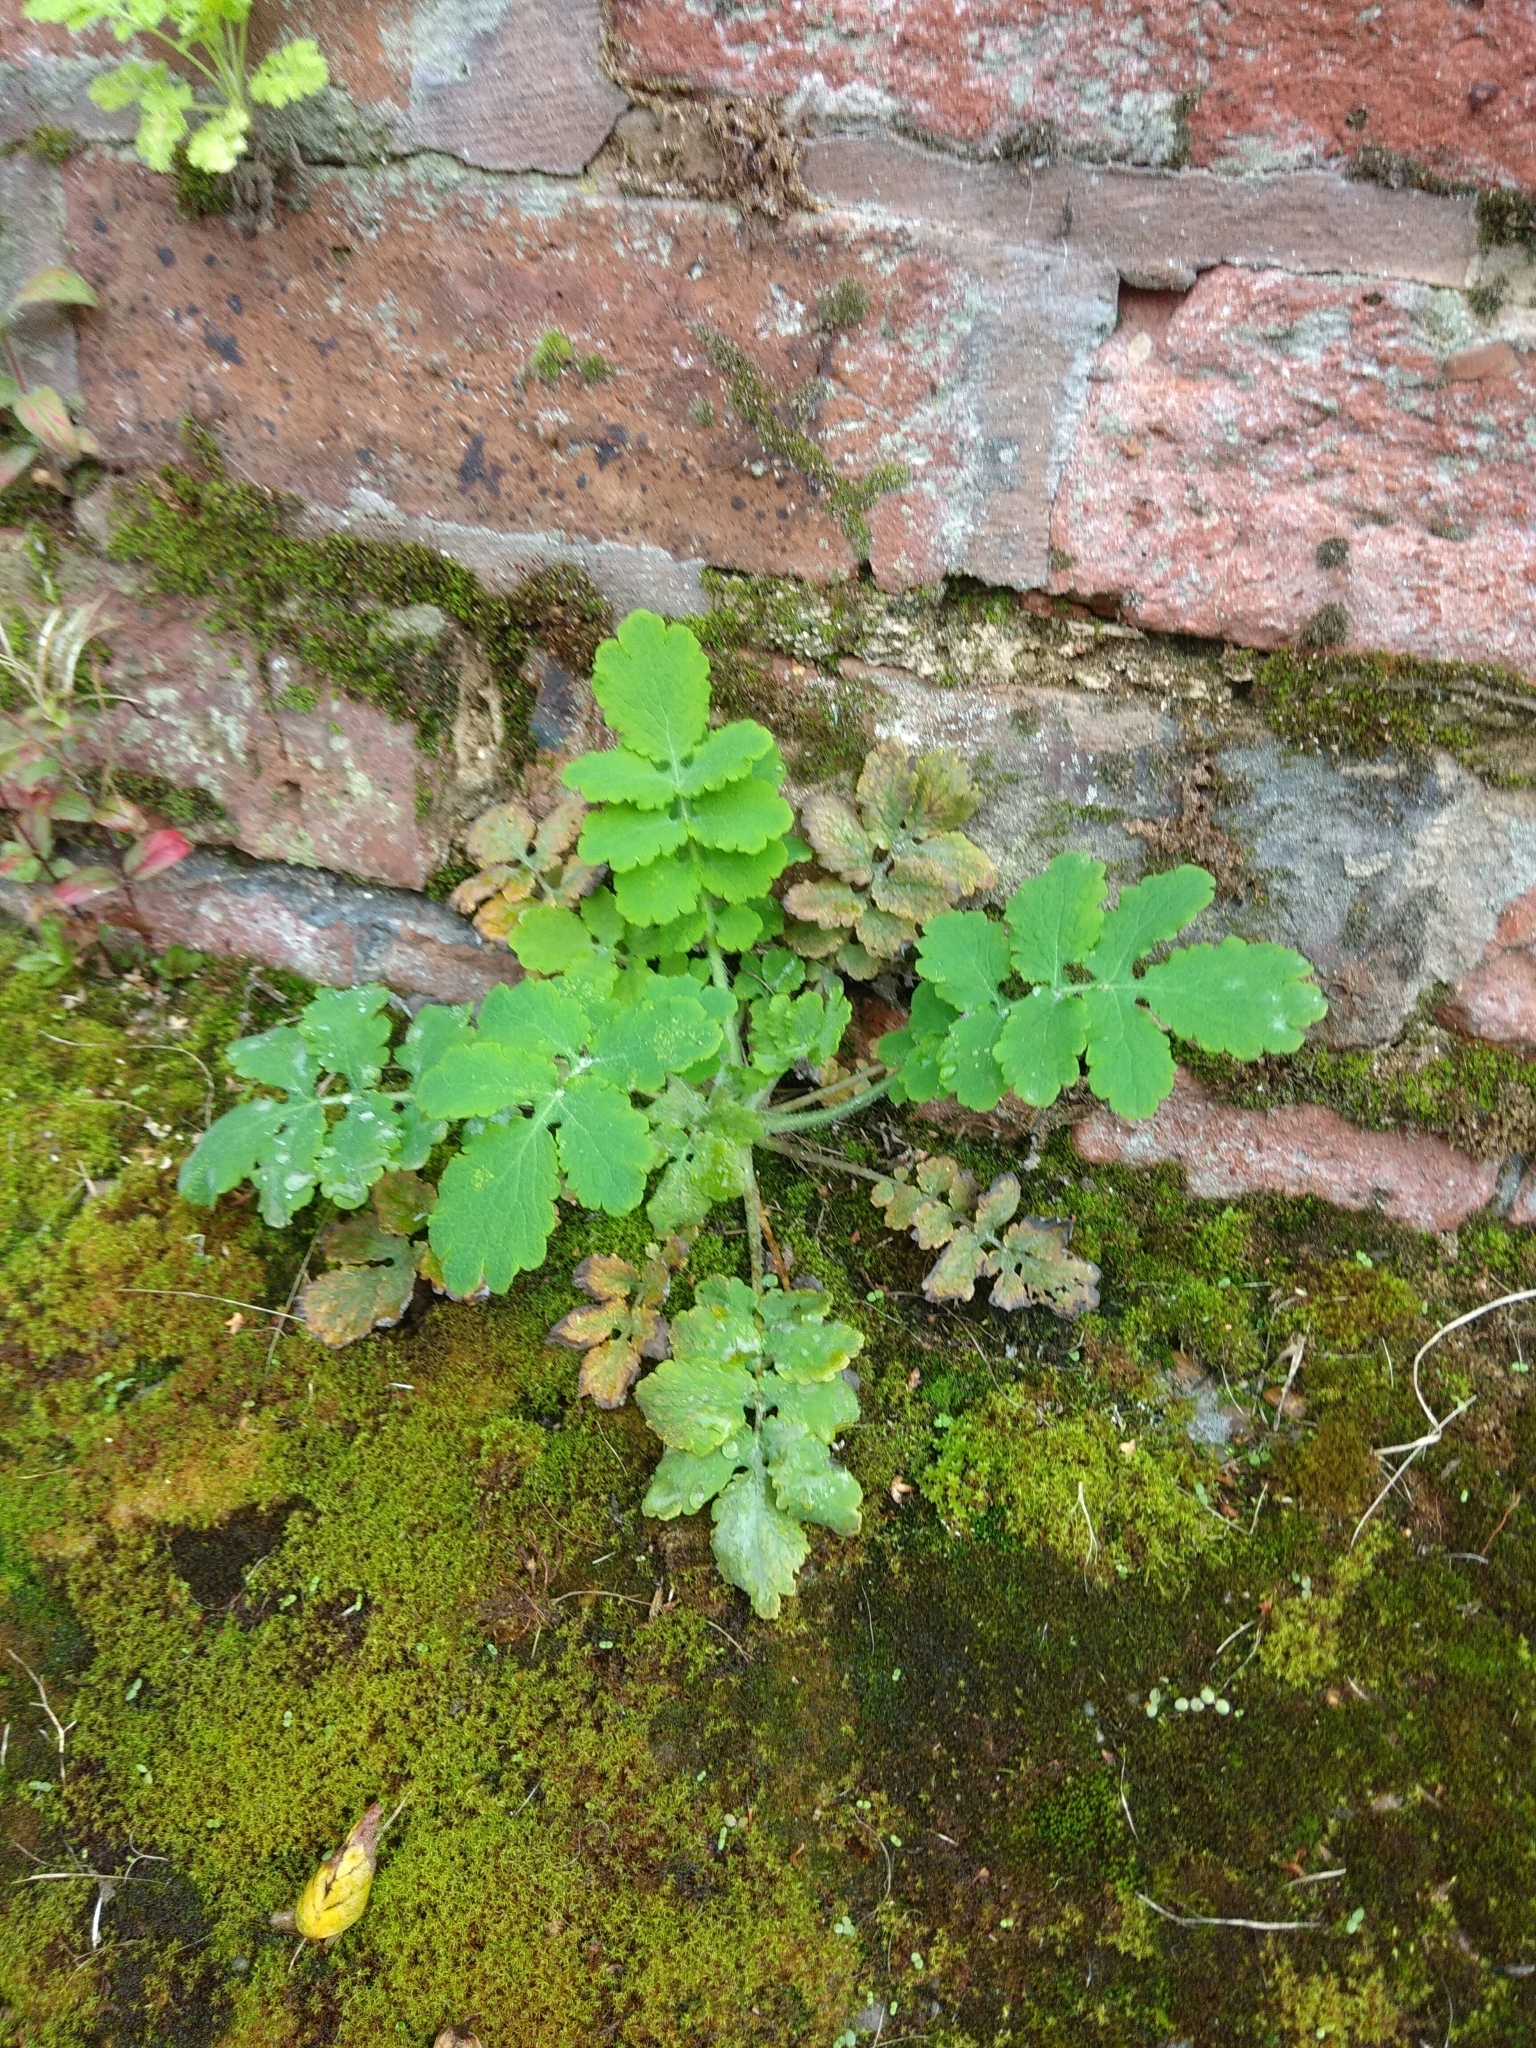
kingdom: Plantae
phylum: Tracheophyta
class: Magnoliopsida
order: Ranunculales
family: Papaveraceae
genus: Chelidonium
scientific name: Chelidonium majus
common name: Greater celandine
